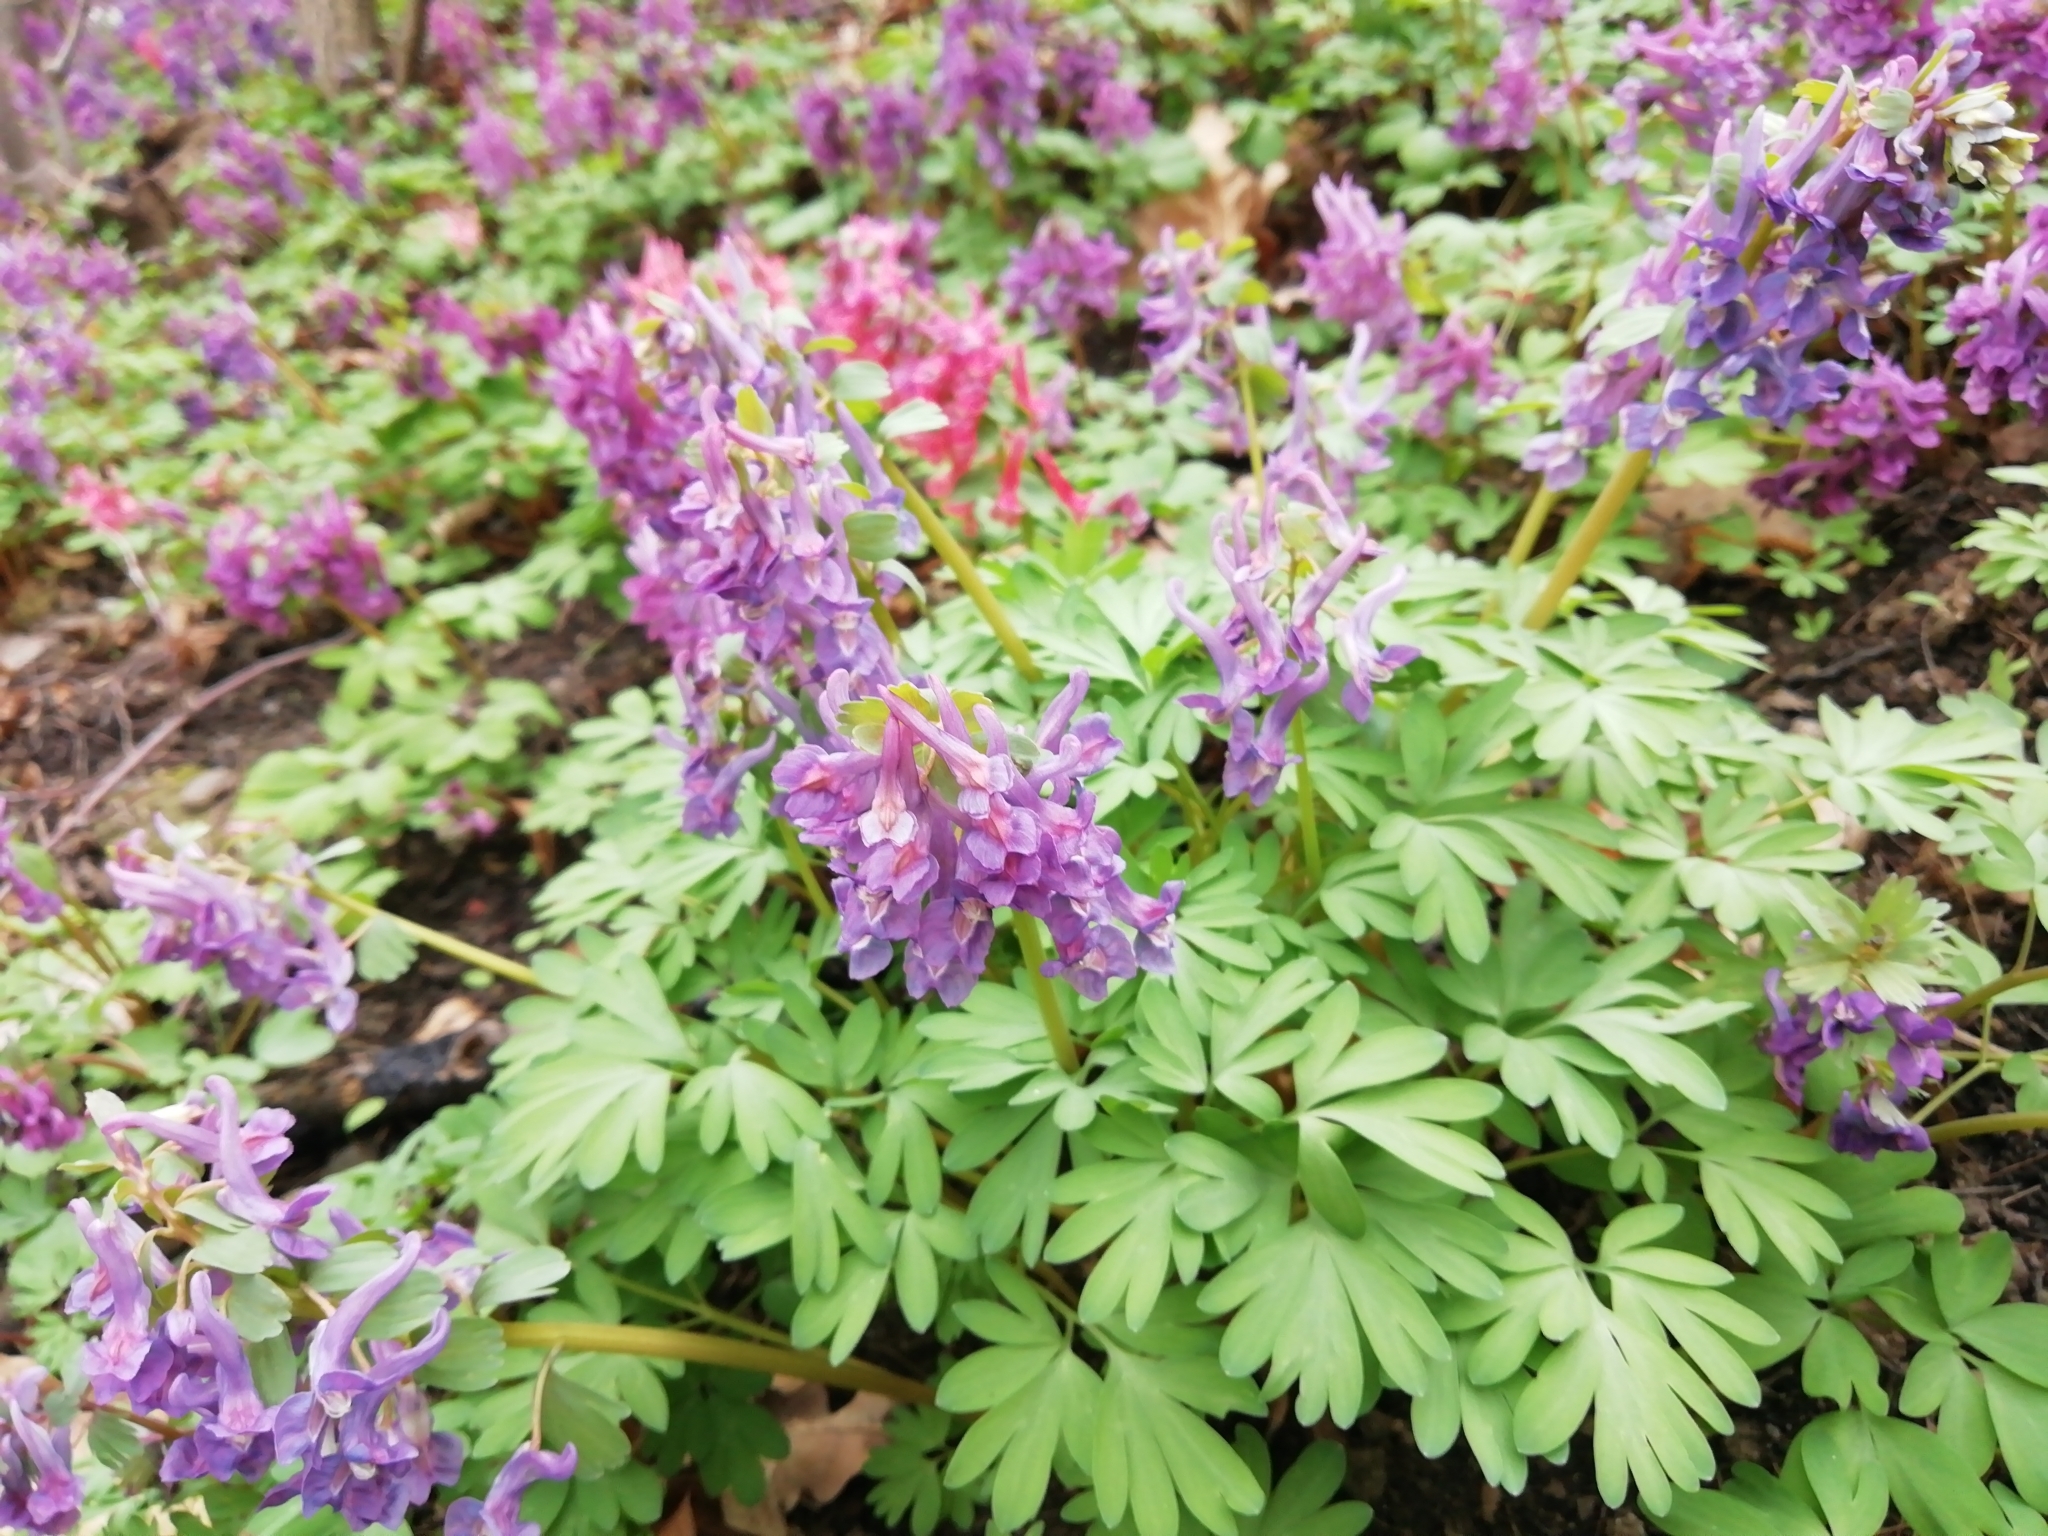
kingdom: Plantae
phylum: Tracheophyta
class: Magnoliopsida
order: Ranunculales
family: Papaveraceae
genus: Corydalis
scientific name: Corydalis solida
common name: Bird-in-a-bush
